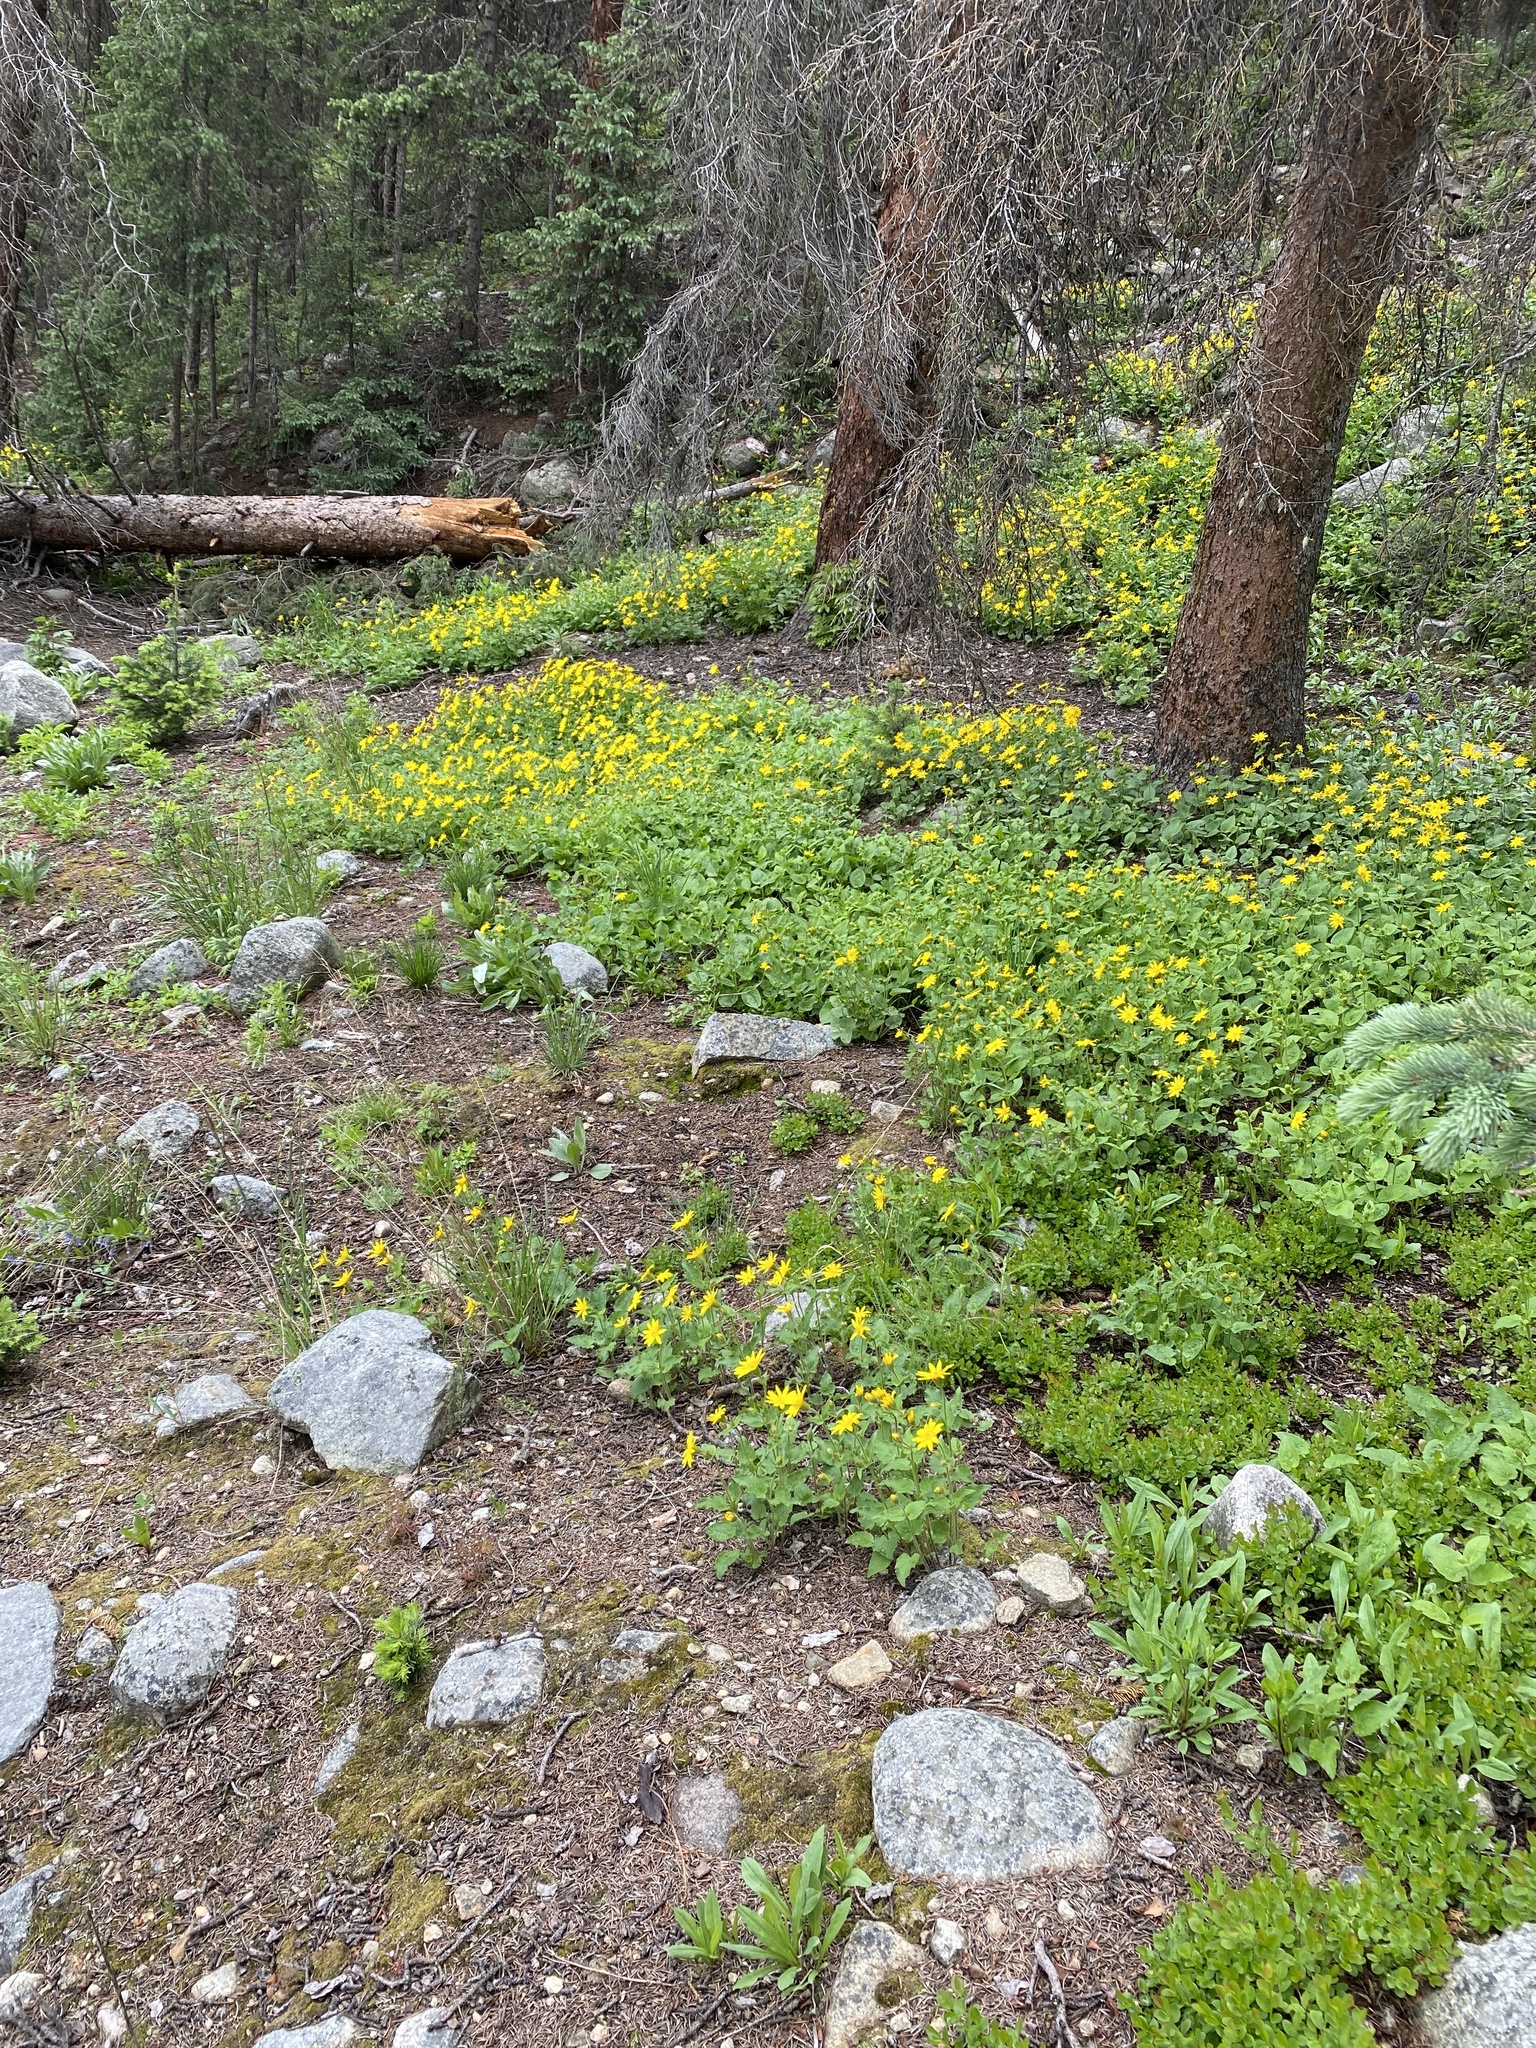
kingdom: Plantae
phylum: Tracheophyta
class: Magnoliopsida
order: Asterales
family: Asteraceae
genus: Arnica
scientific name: Arnica cordifolia
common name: Heart-leaf arnica
